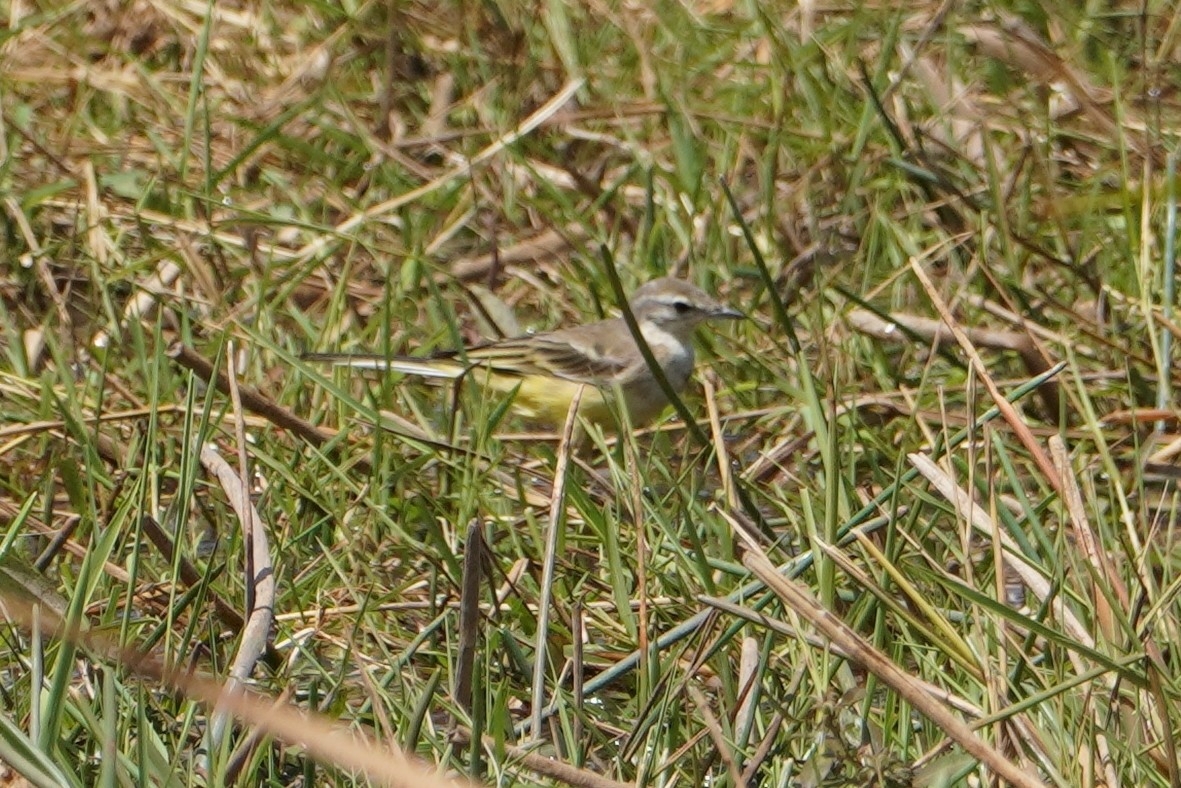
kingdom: Animalia
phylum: Chordata
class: Aves
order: Passeriformes
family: Motacillidae
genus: Motacilla
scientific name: Motacilla flava
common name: Western yellow wagtail
